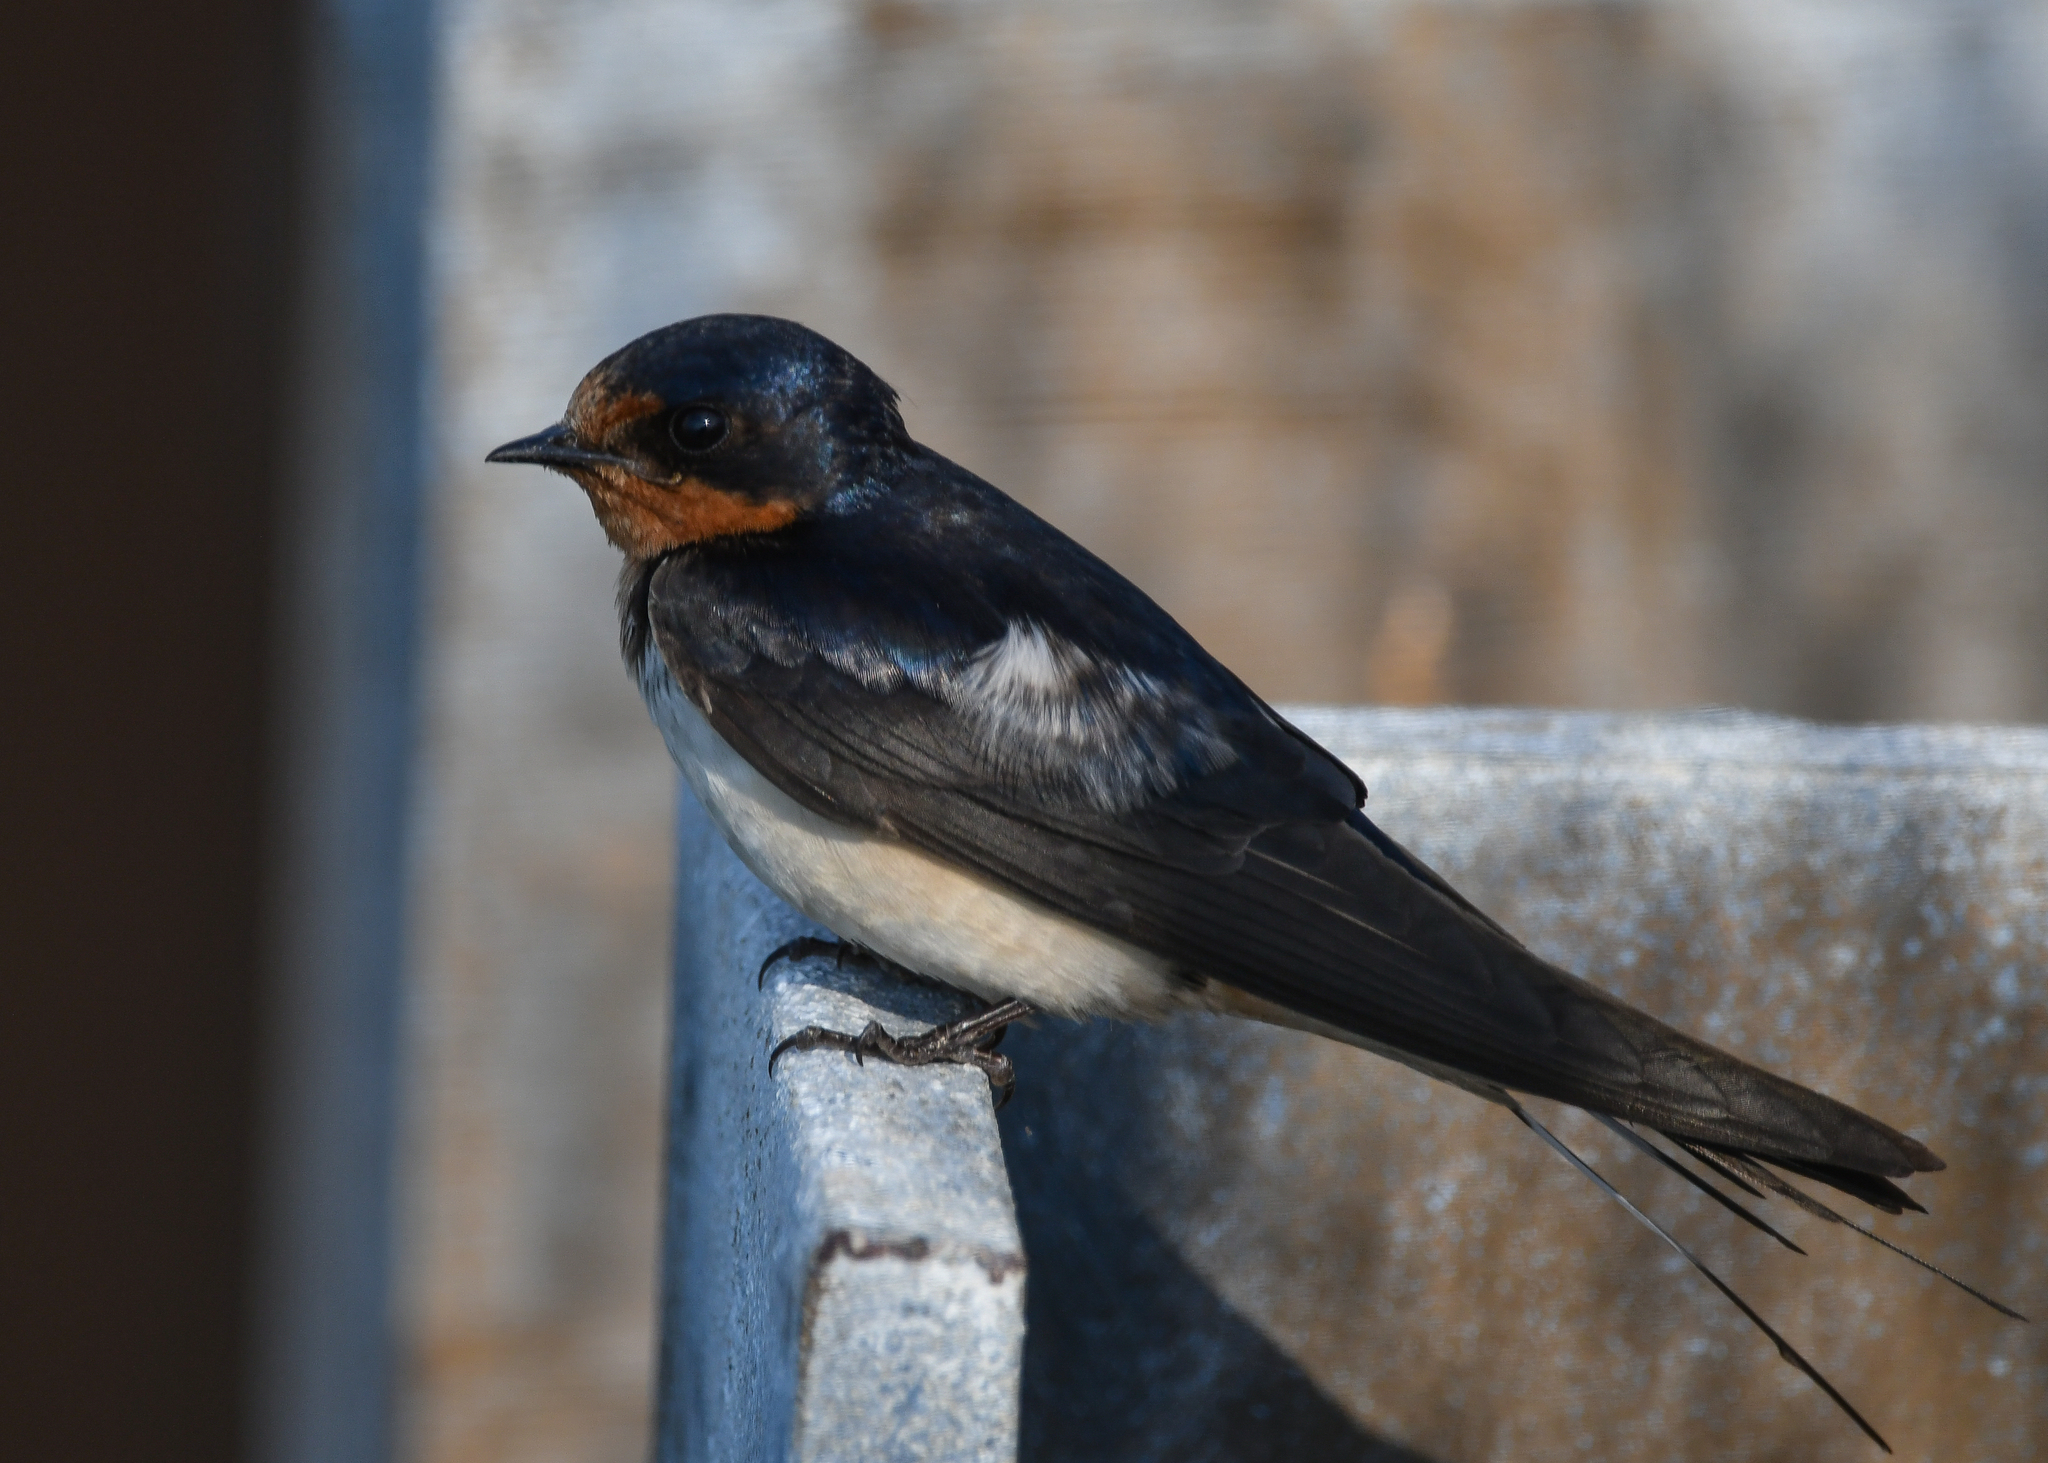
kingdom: Animalia
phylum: Chordata
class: Aves
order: Passeriformes
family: Hirundinidae
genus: Hirundo
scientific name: Hirundo rustica
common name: Barn swallow
